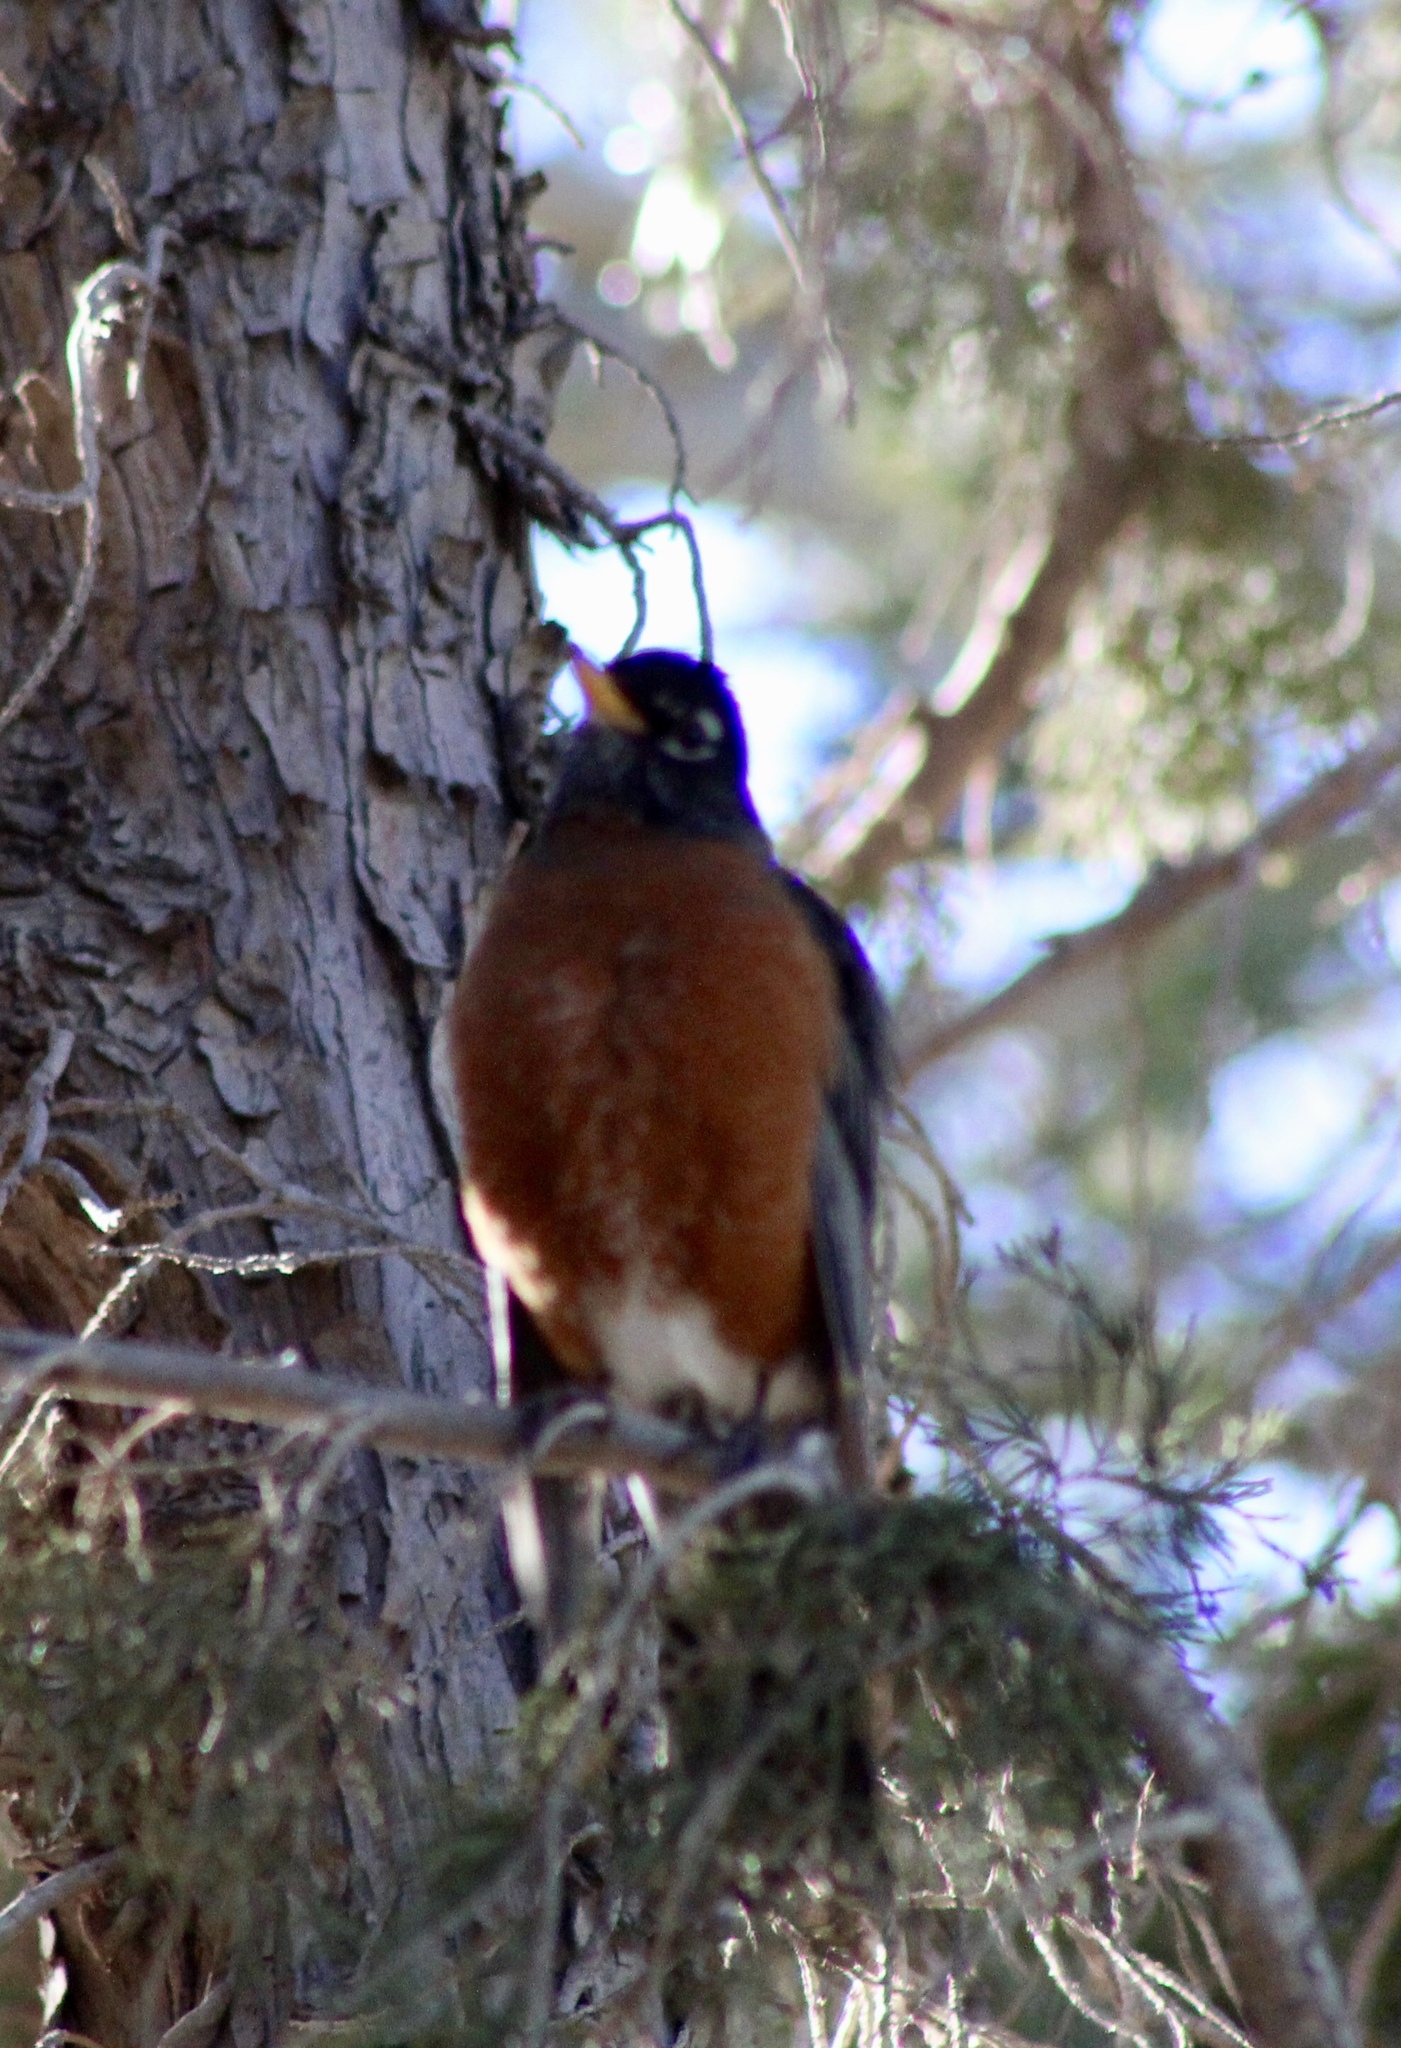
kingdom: Animalia
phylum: Chordata
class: Aves
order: Passeriformes
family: Turdidae
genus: Turdus
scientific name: Turdus migratorius
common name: American robin
